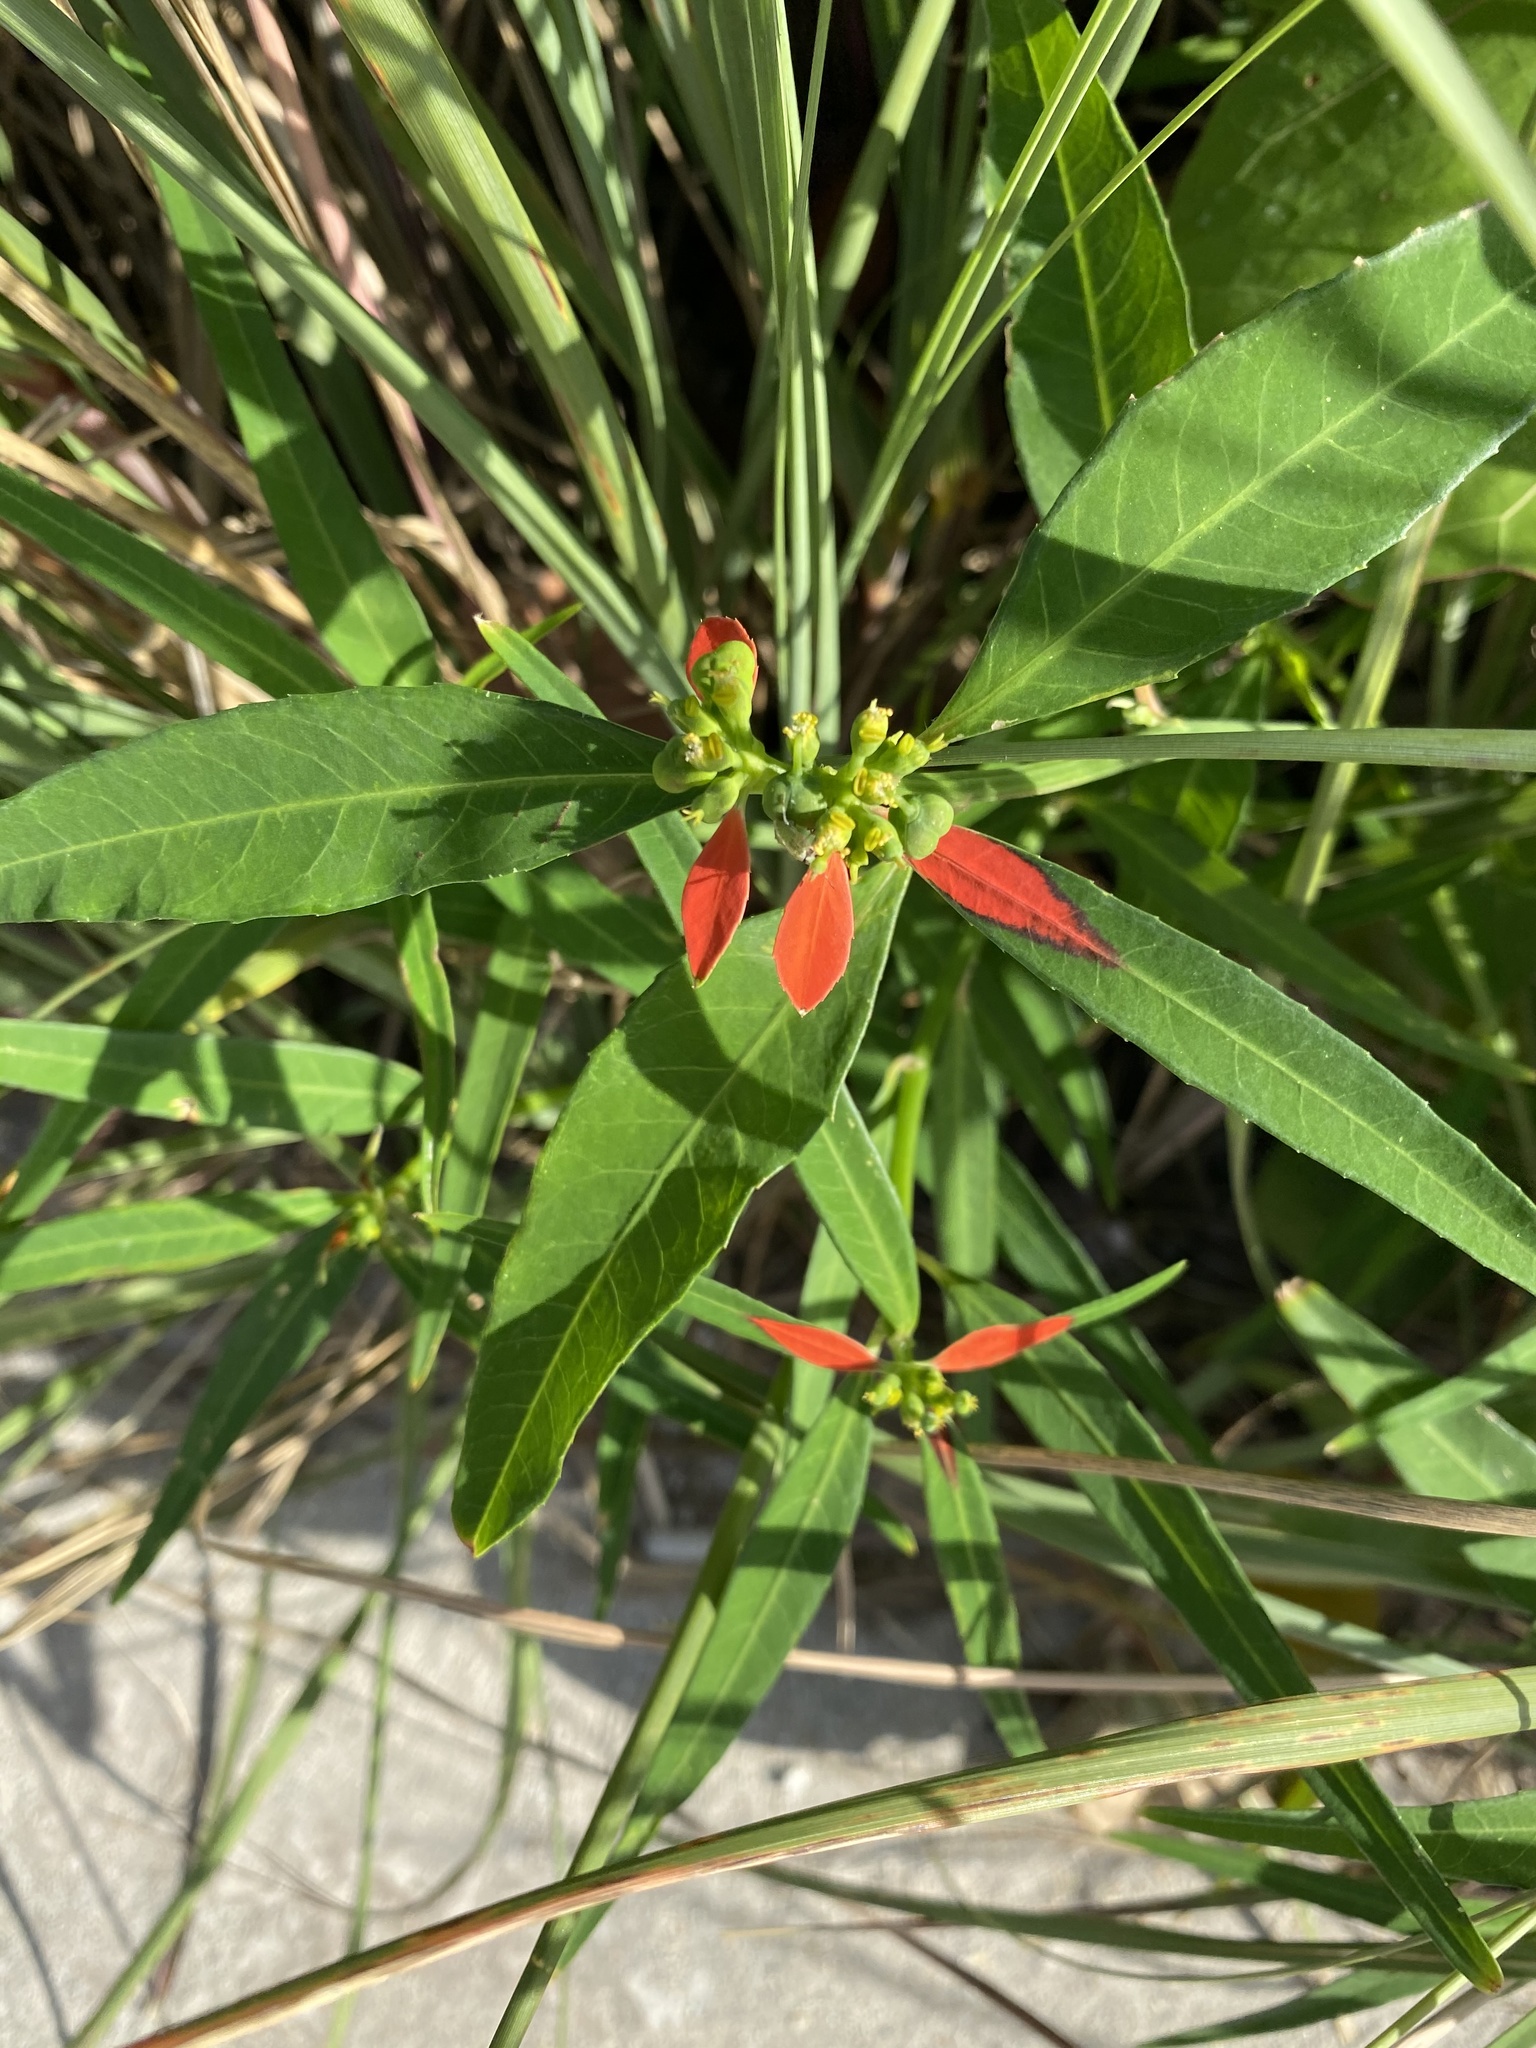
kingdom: Plantae
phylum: Tracheophyta
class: Magnoliopsida
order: Malpighiales
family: Euphorbiaceae
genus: Euphorbia
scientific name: Euphorbia heterophylla
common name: Mexican fireplant
